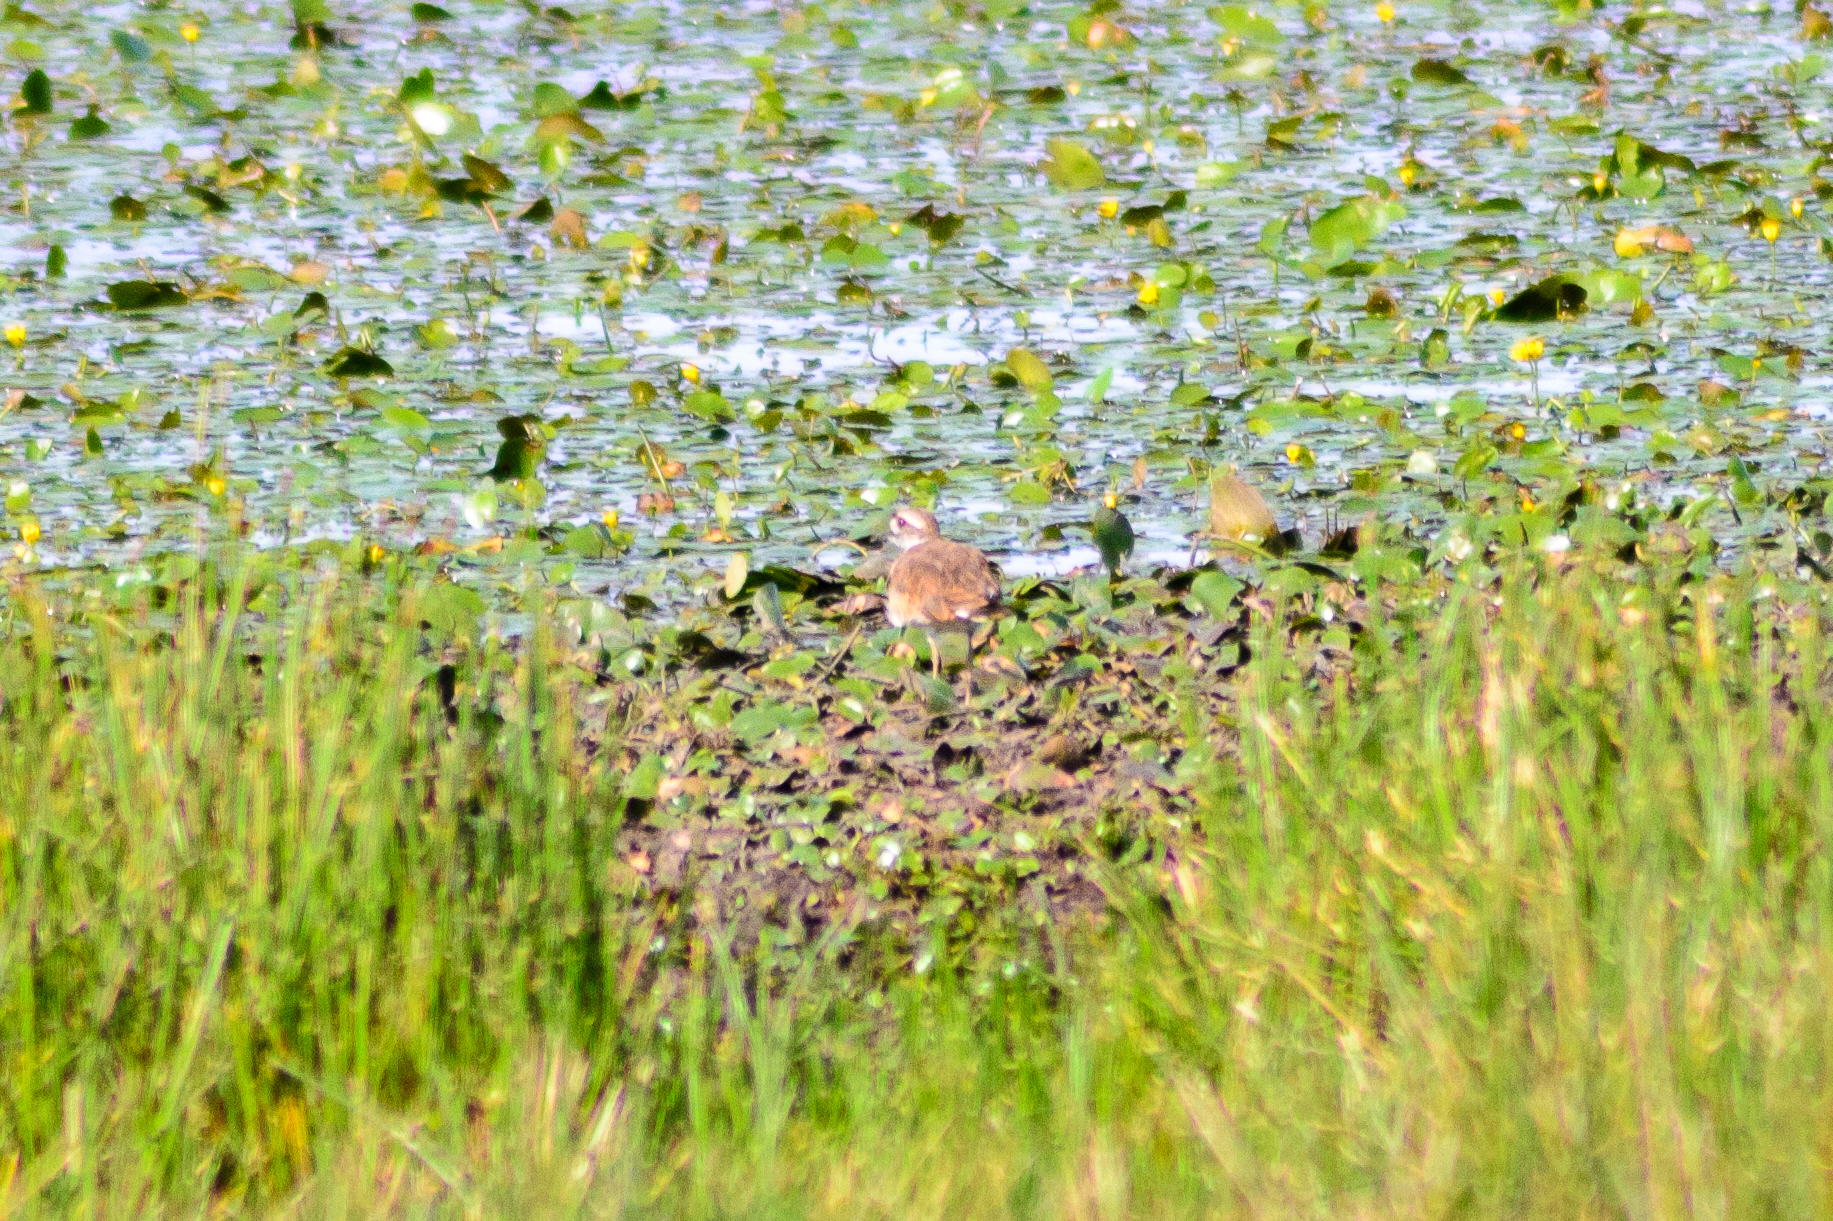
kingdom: Animalia
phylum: Chordata
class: Aves
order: Charadriiformes
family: Charadriidae
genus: Charadrius
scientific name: Charadrius vociferus
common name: Killdeer
